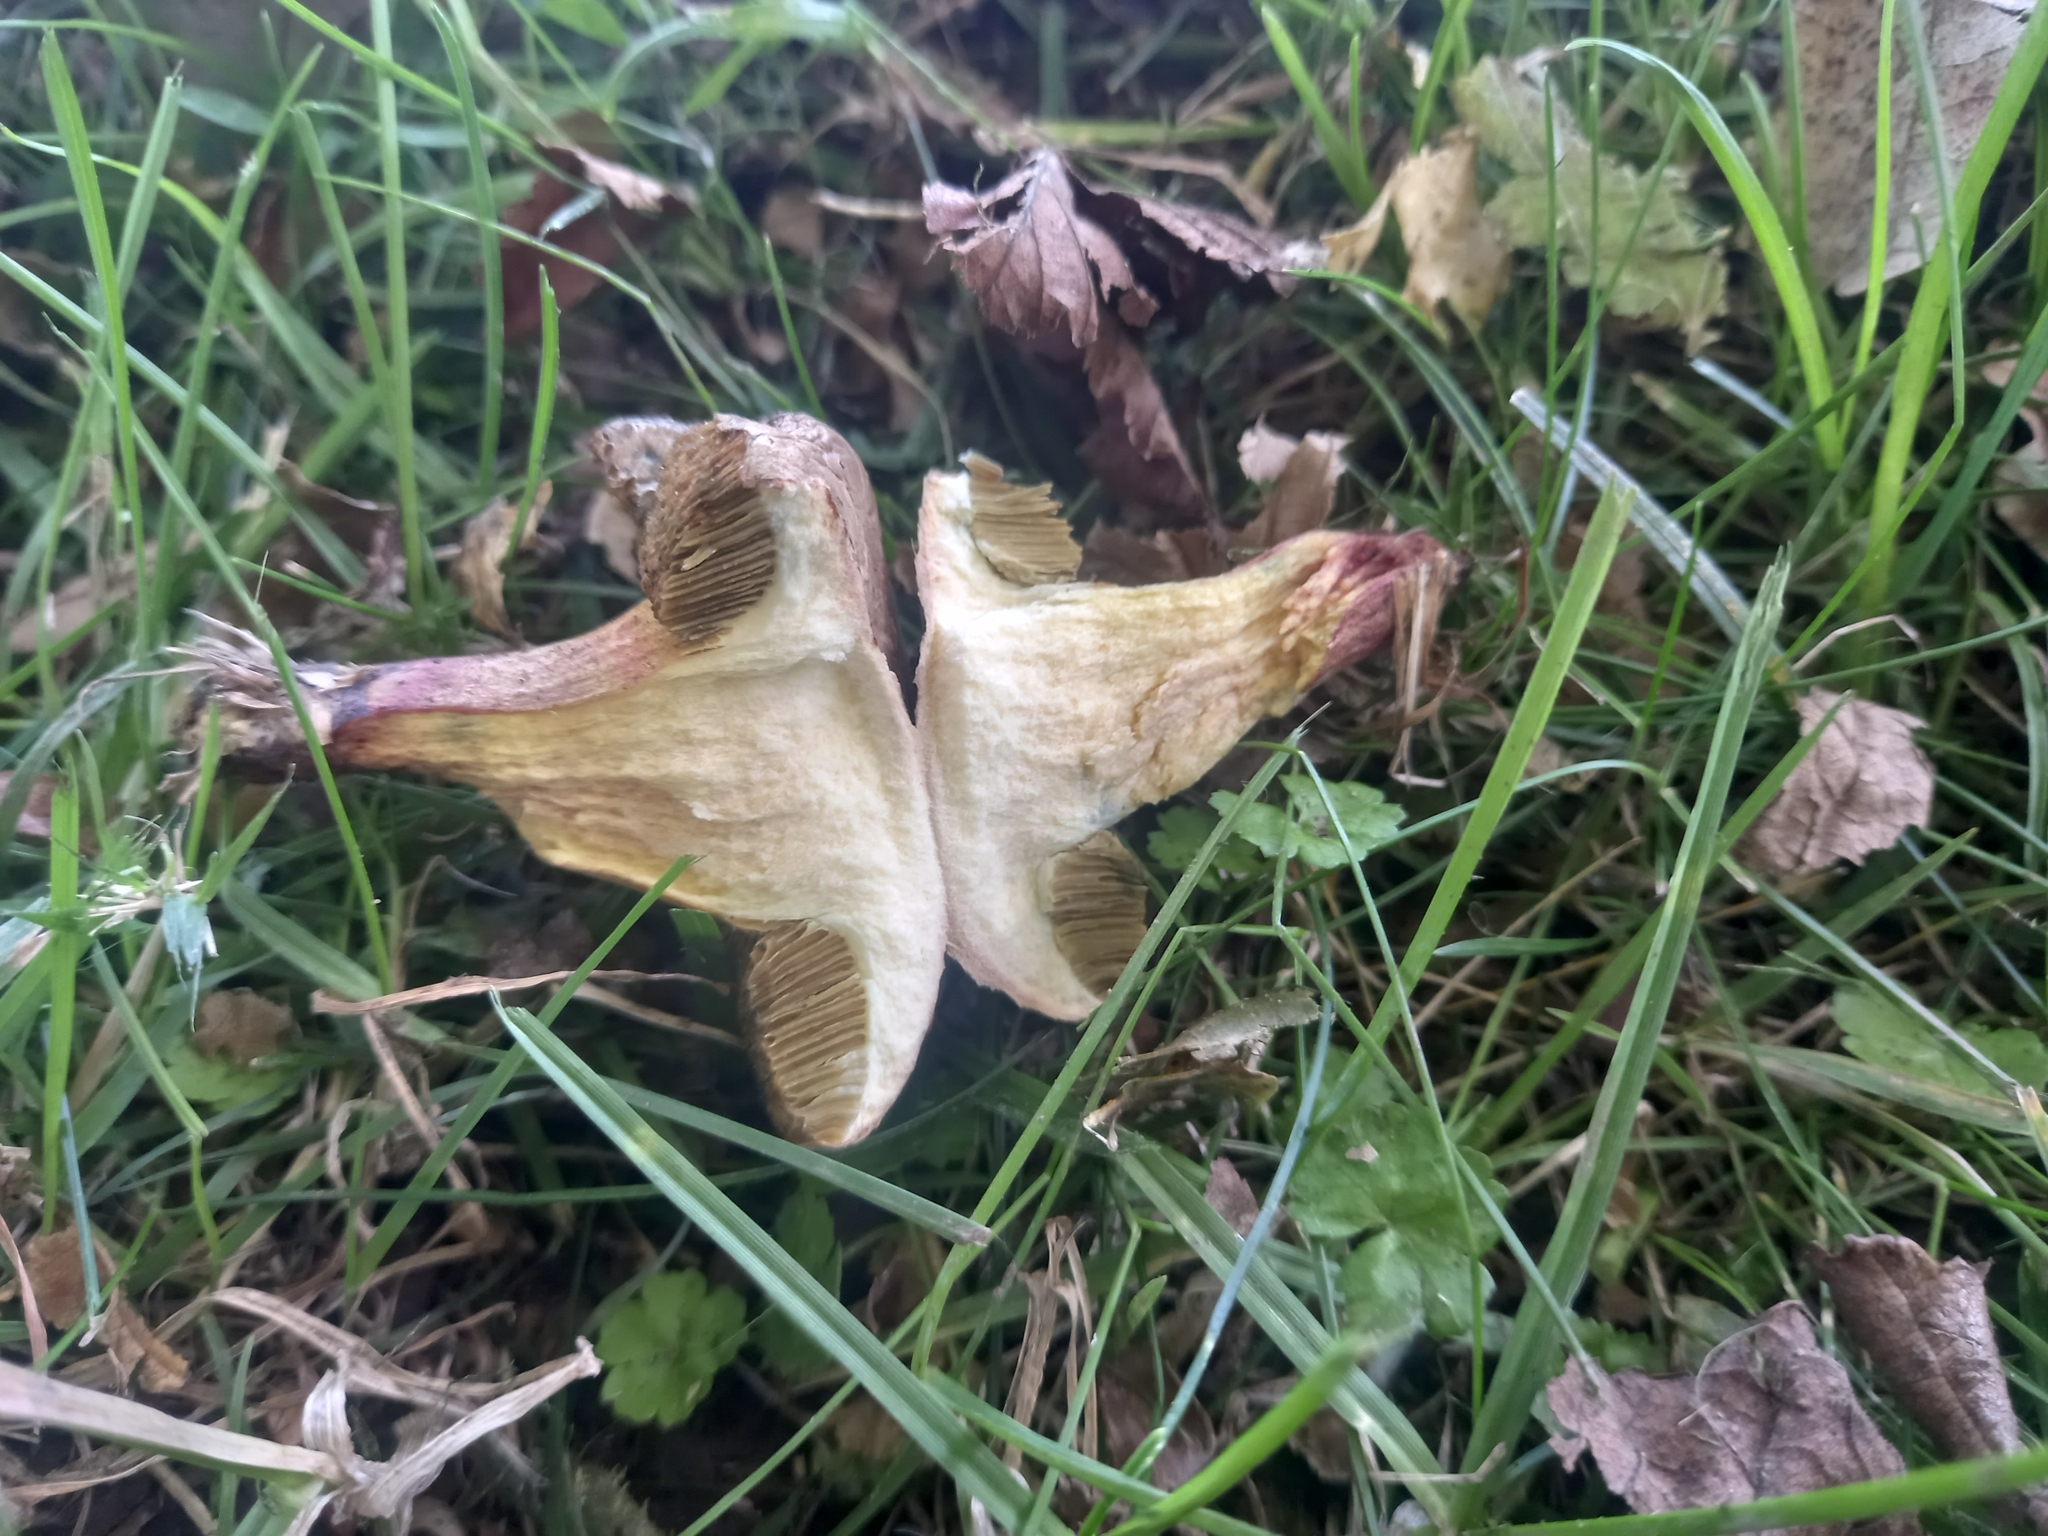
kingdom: Fungi
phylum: Basidiomycota
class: Agaricomycetes
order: Boletales
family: Boletaceae
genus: Xerocomellus
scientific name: Xerocomellus cisalpinus
